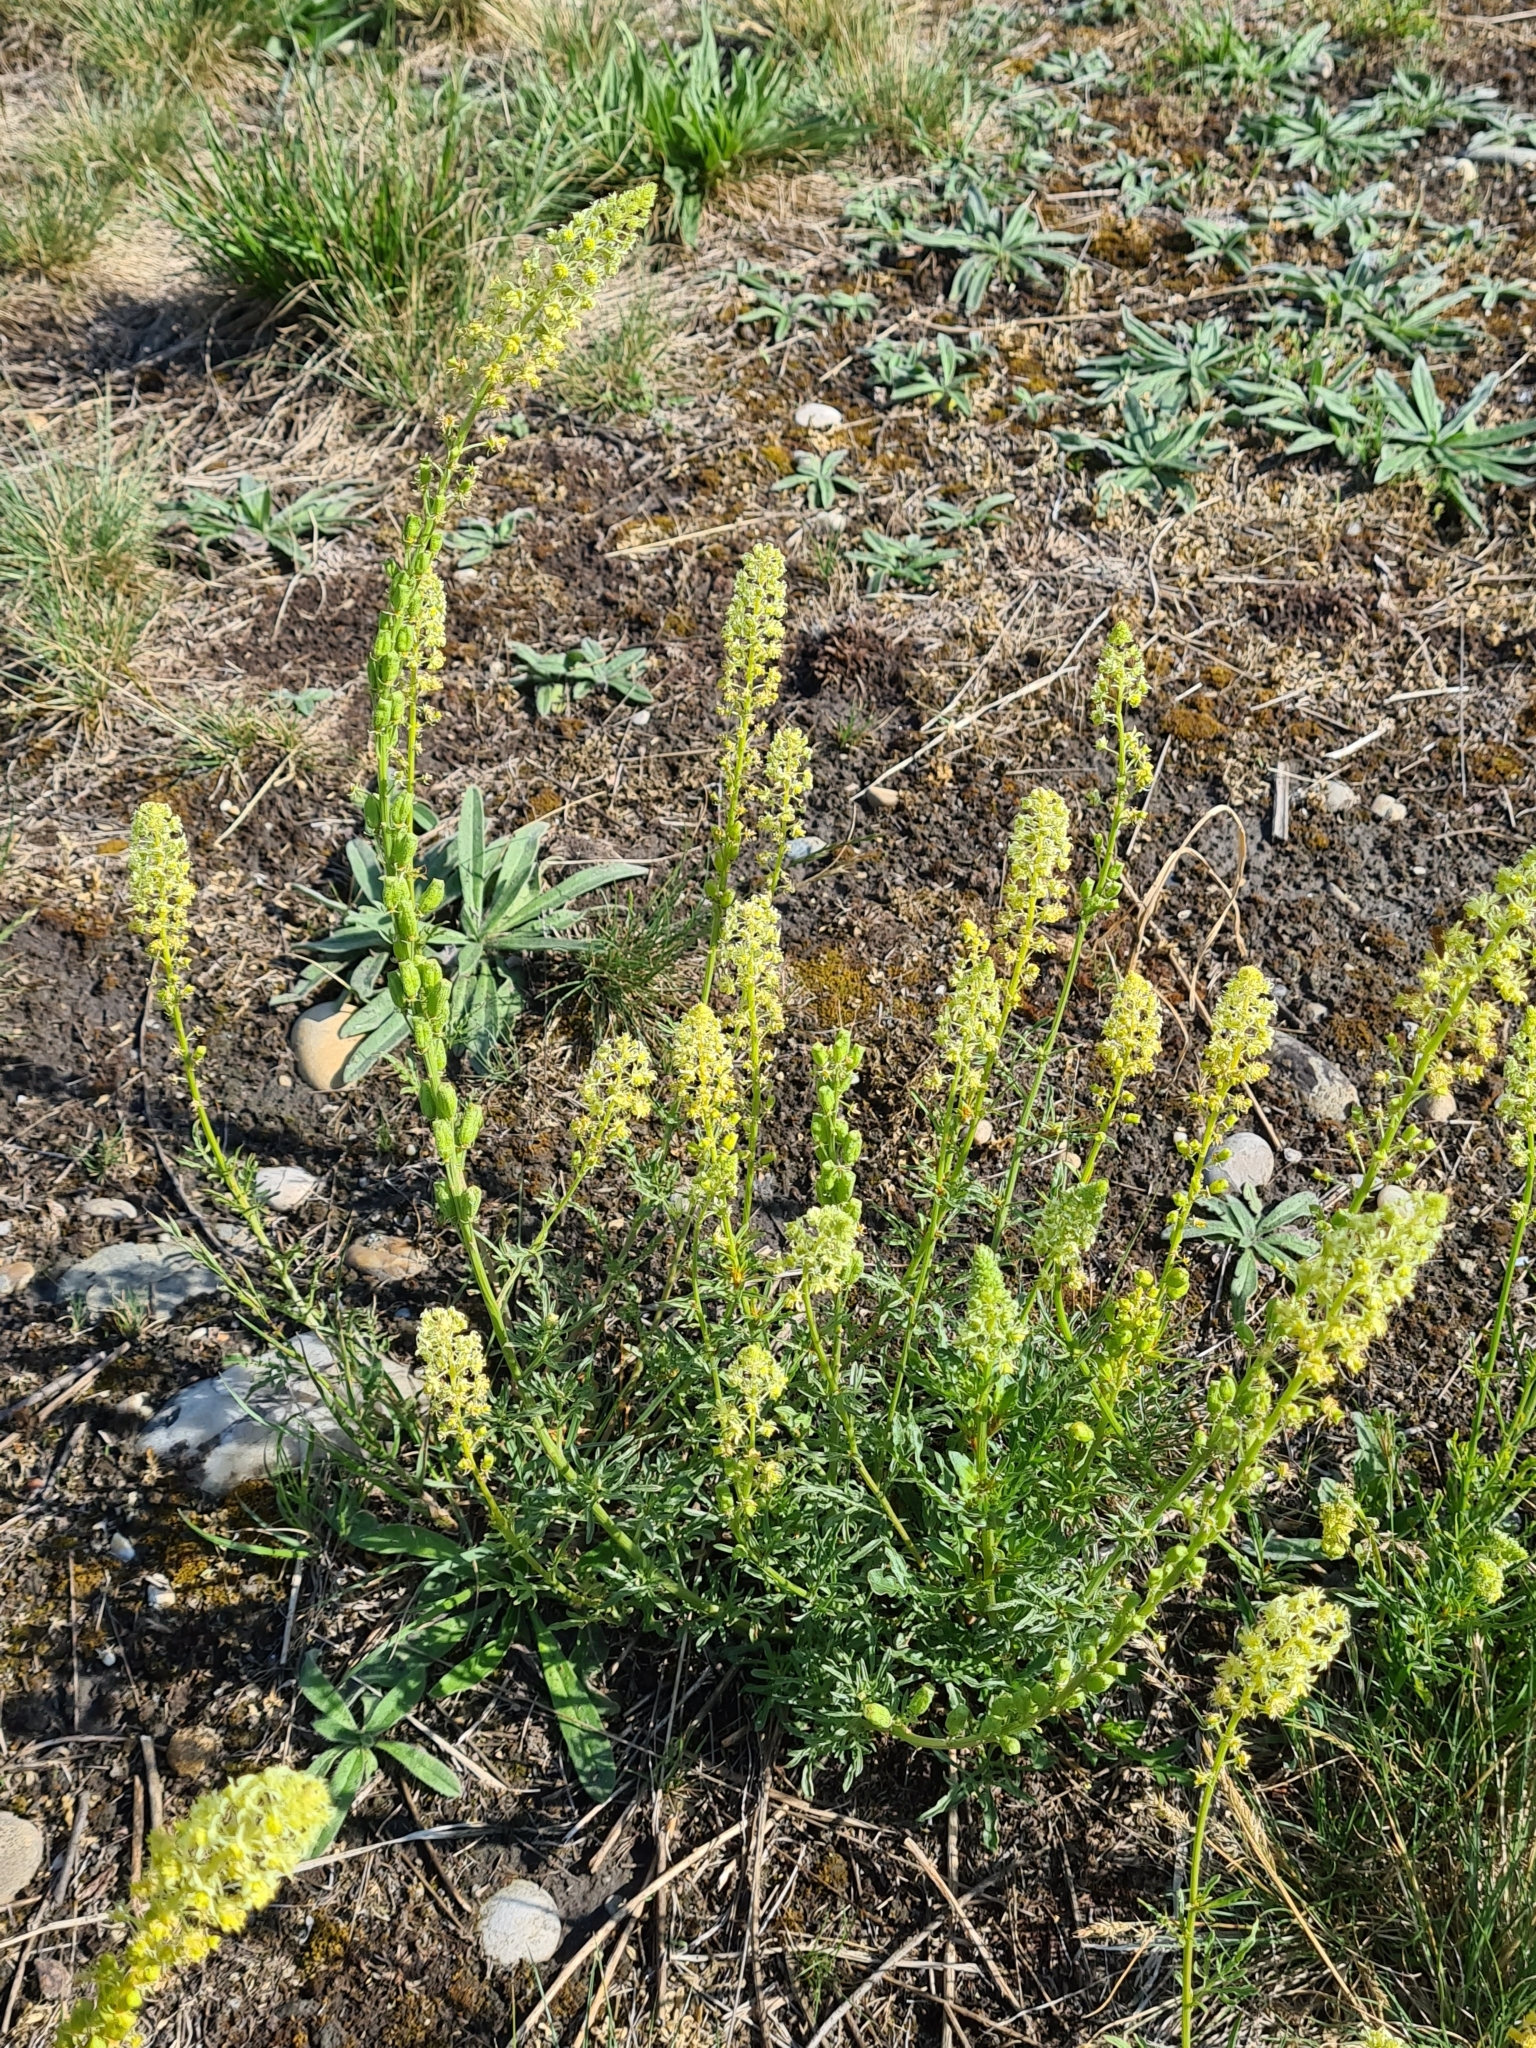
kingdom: Plantae
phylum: Tracheophyta
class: Magnoliopsida
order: Brassicales
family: Resedaceae
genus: Reseda
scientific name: Reseda lutea
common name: Wild mignonette
